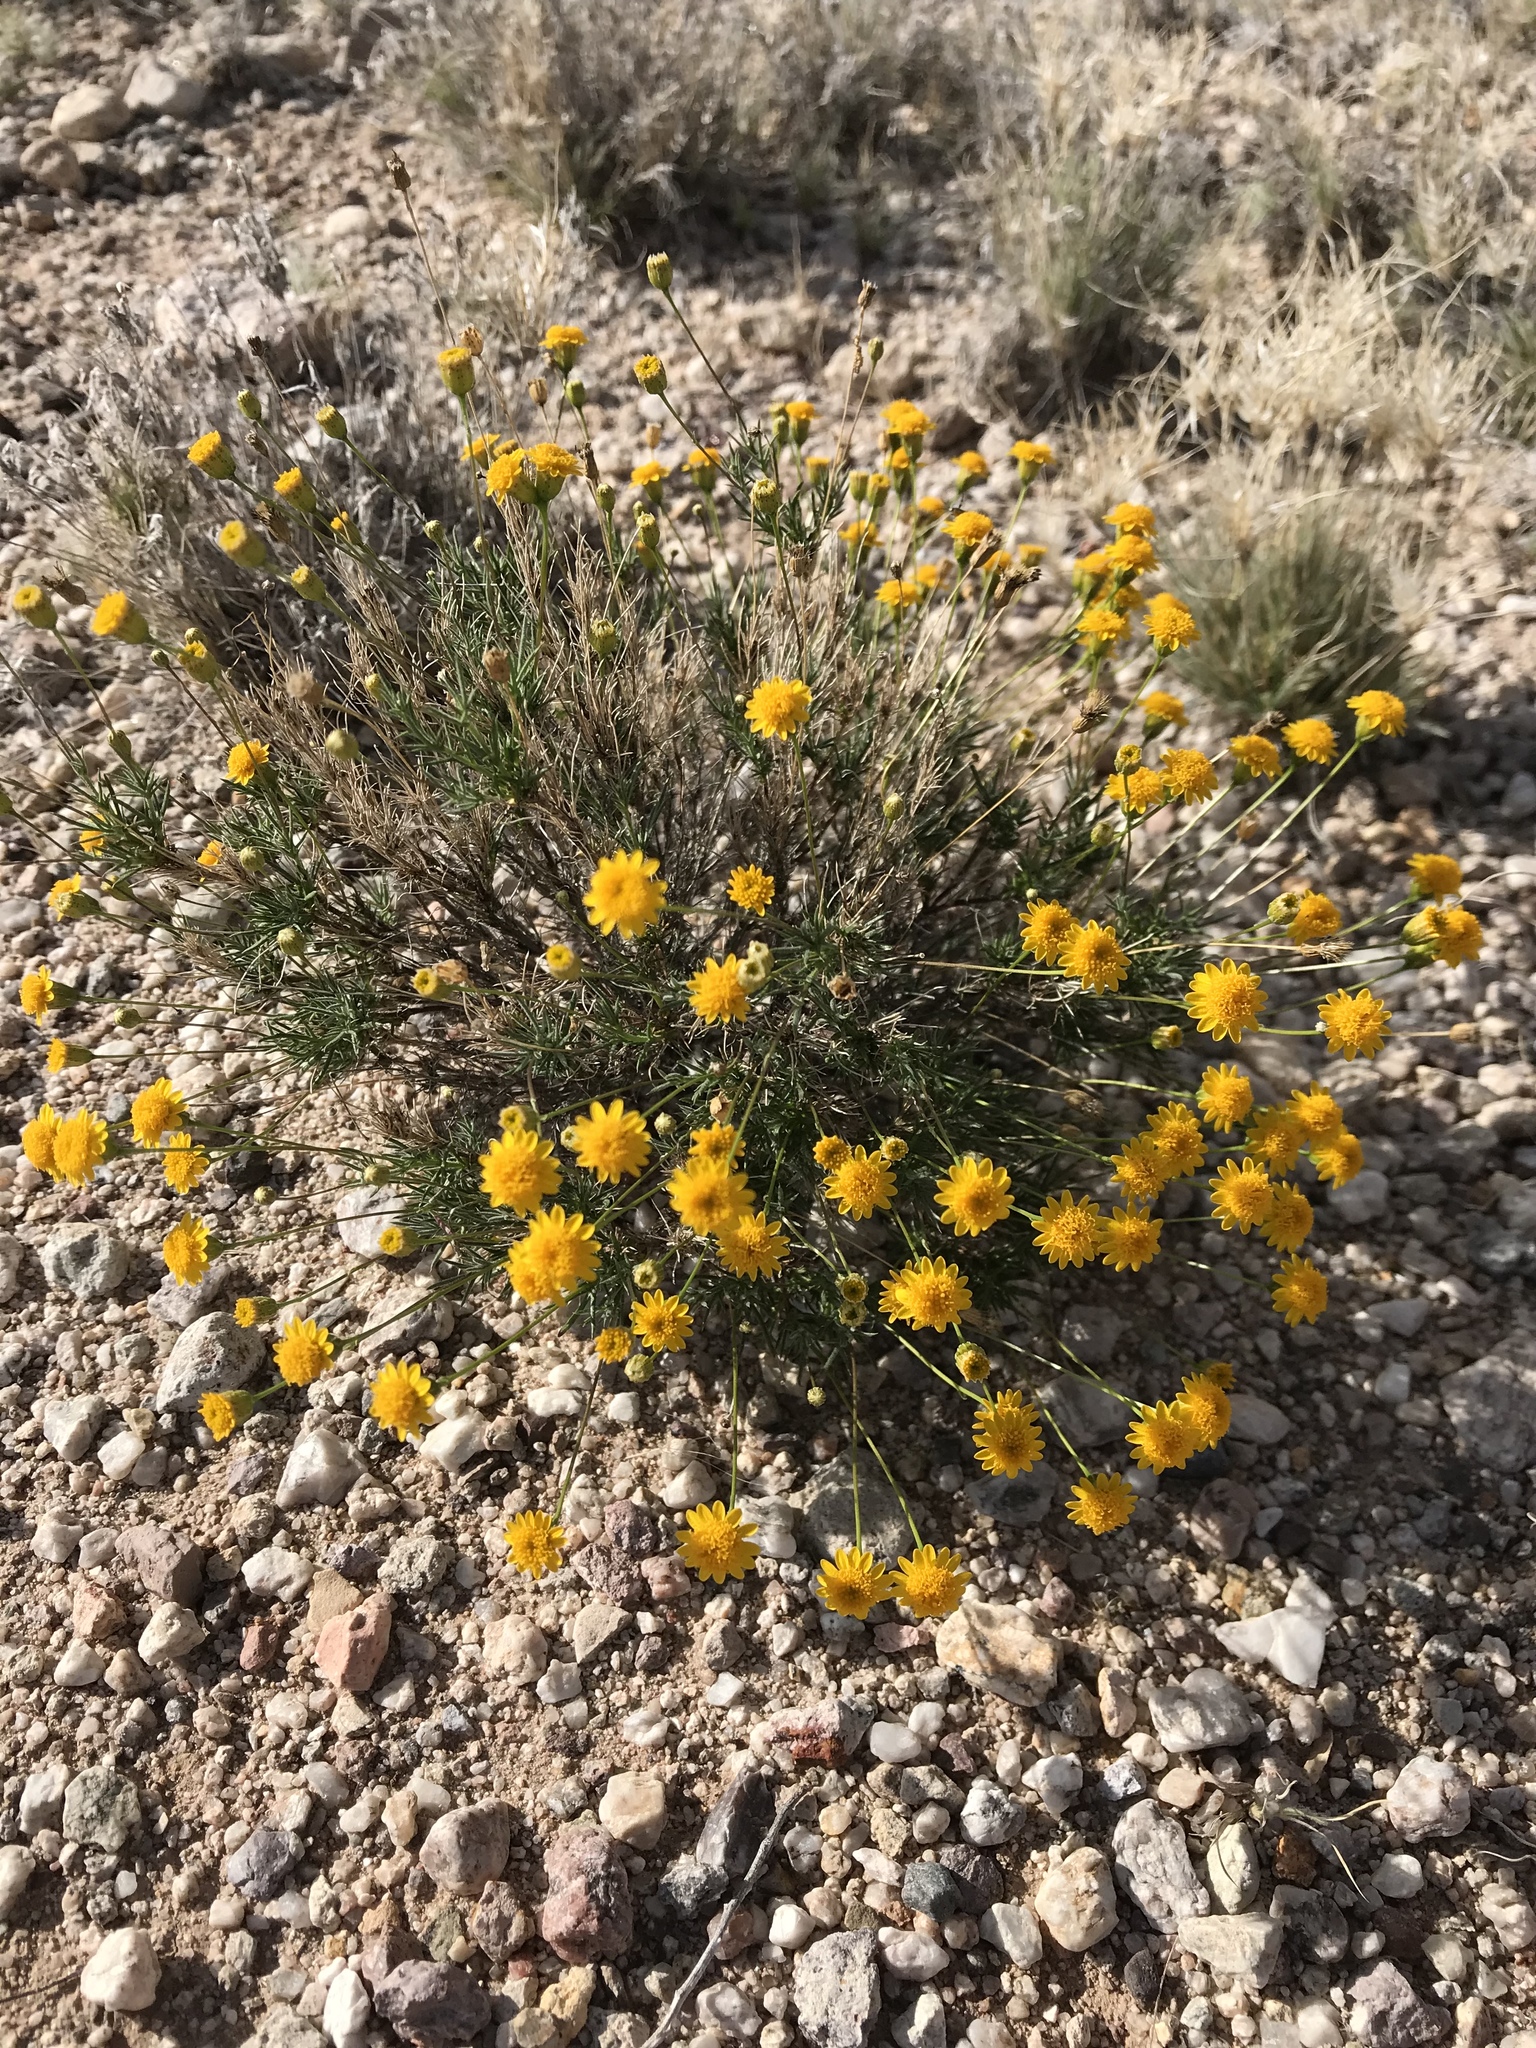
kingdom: Plantae
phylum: Tracheophyta
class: Magnoliopsida
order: Asterales
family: Asteraceae
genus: Thymophylla
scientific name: Thymophylla pentachaeta
